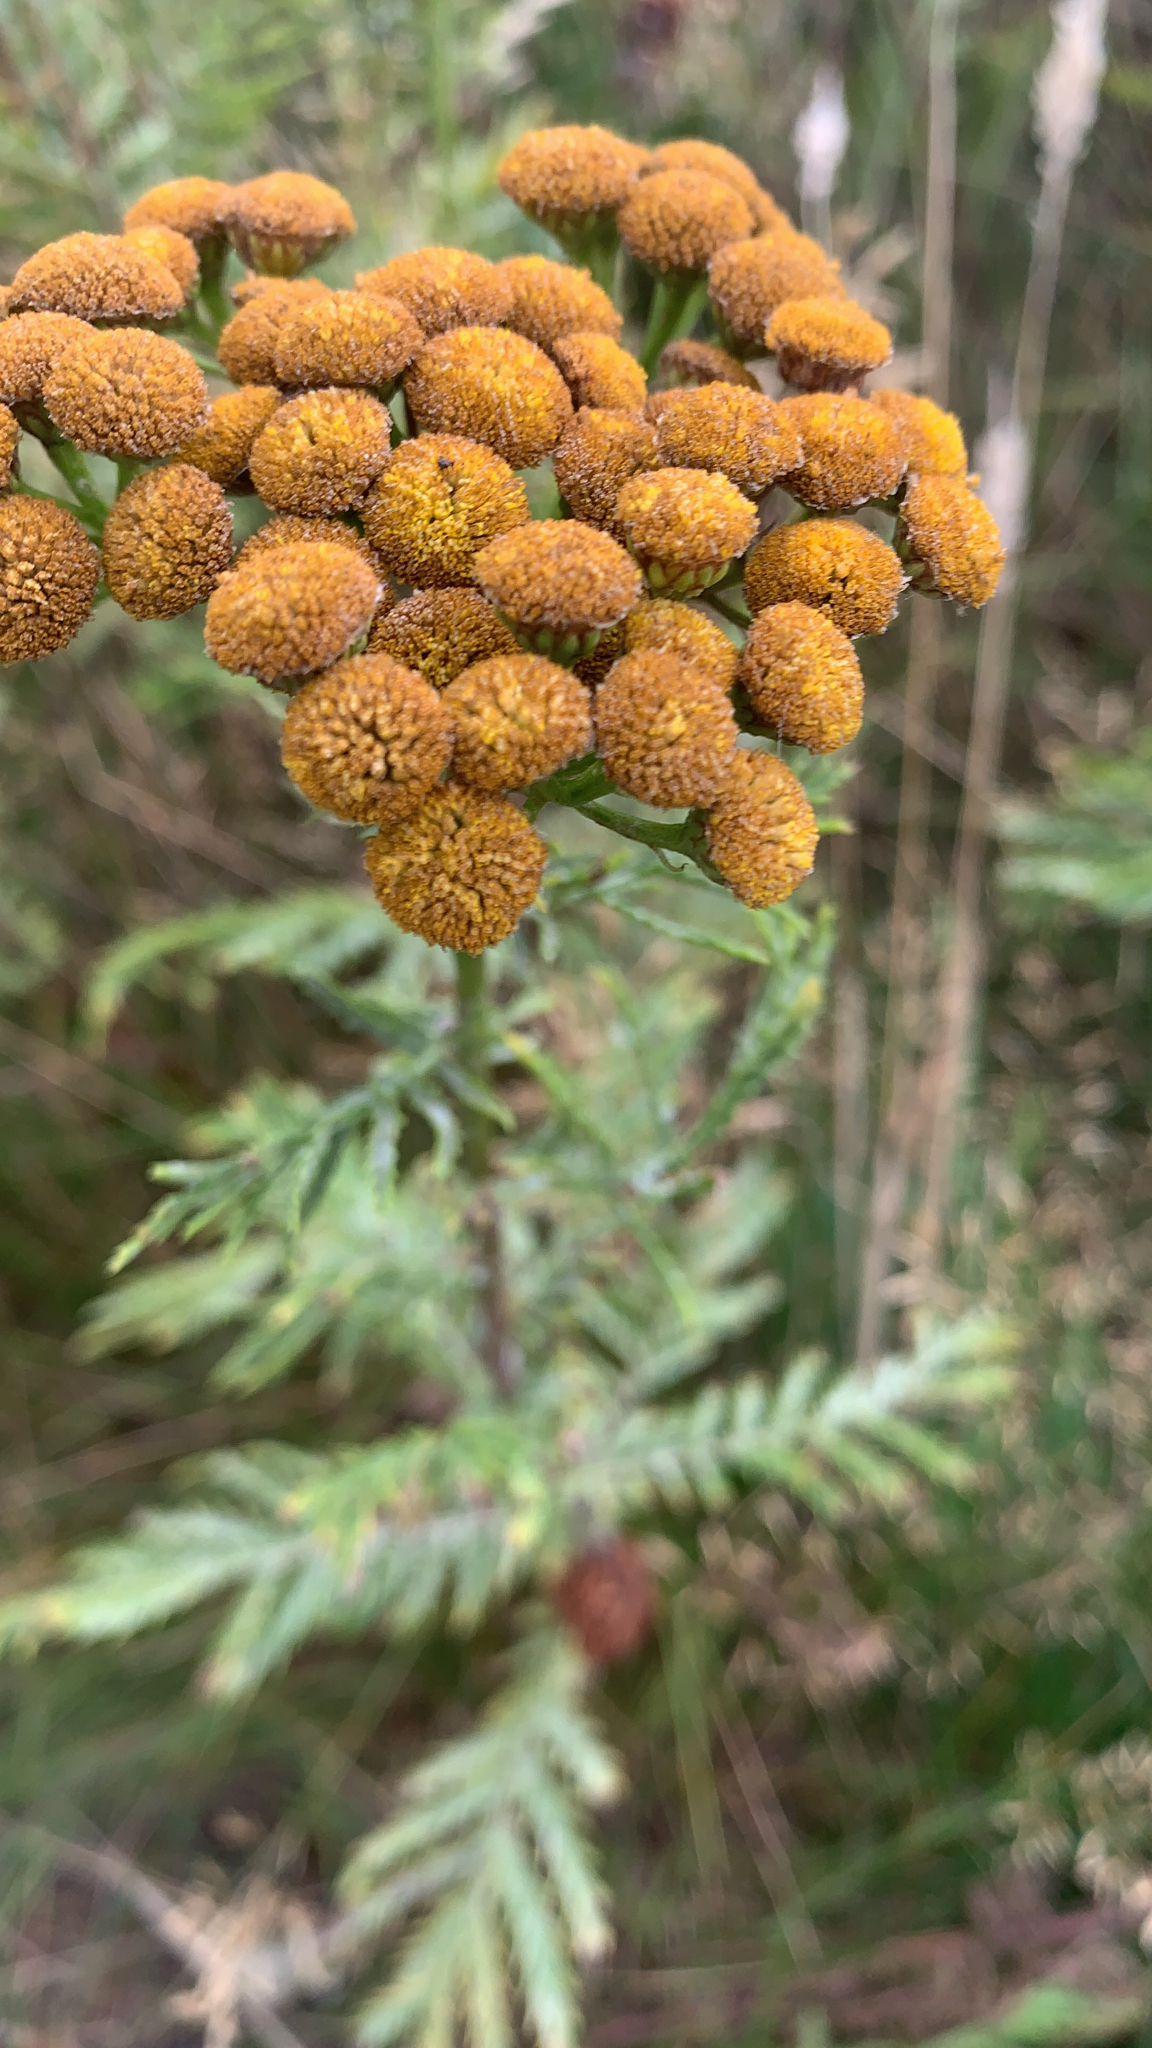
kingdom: Plantae
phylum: Tracheophyta
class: Magnoliopsida
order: Asterales
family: Asteraceae
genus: Tanacetum
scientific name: Tanacetum vulgare
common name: Common tansy
